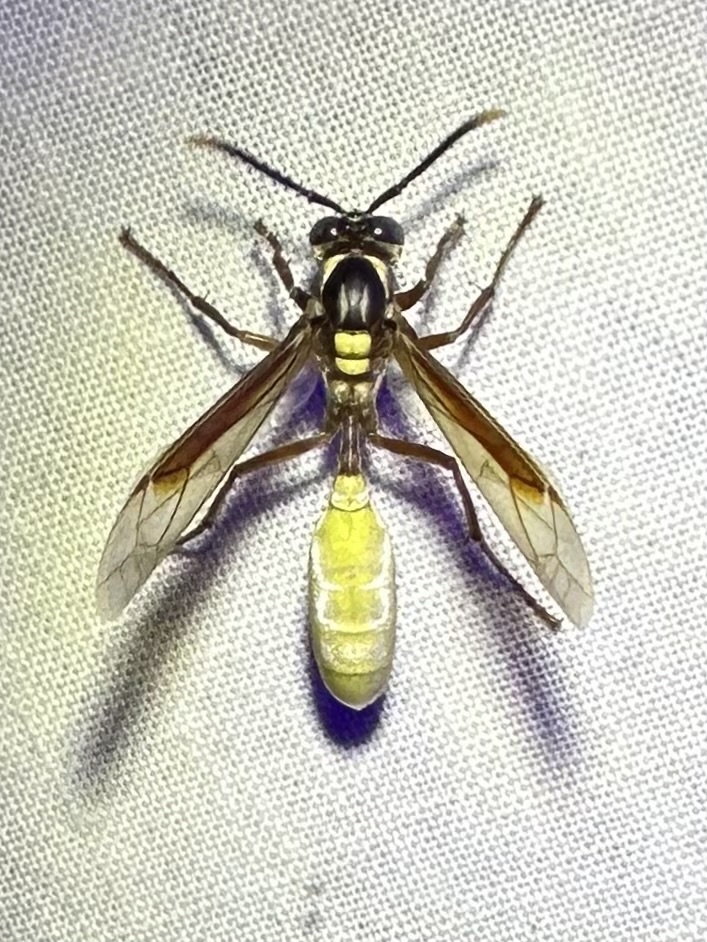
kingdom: Animalia
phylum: Arthropoda
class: Insecta
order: Hymenoptera
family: Vespidae
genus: Apoica
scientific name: Apoica pallens
